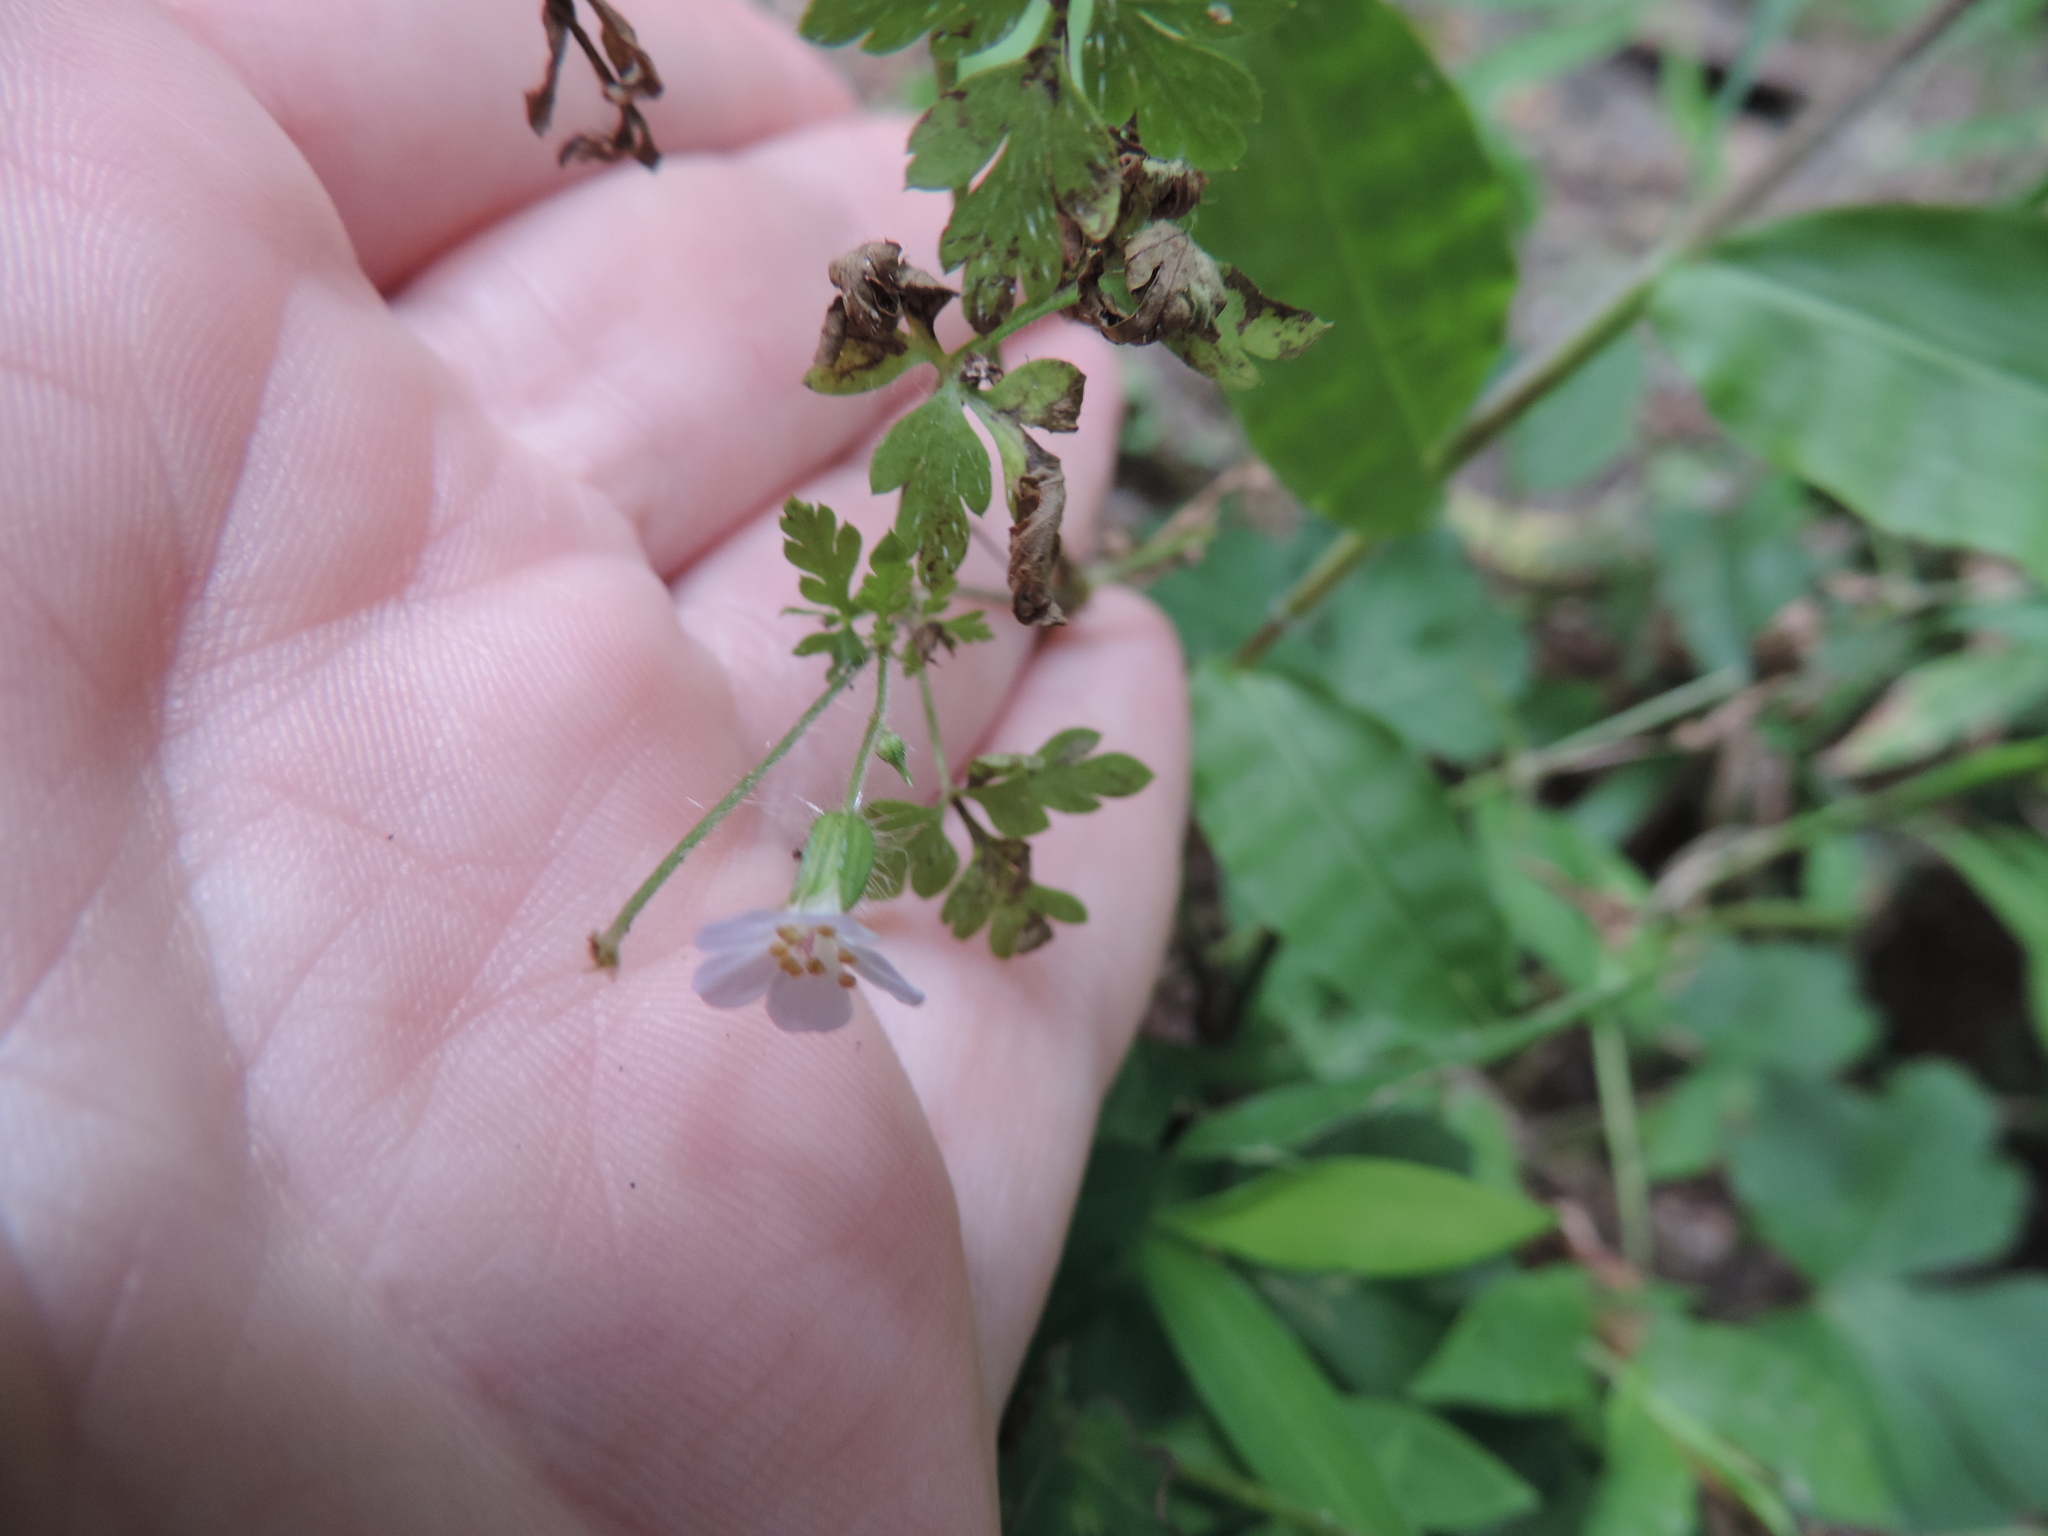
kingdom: Plantae
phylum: Tracheophyta
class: Magnoliopsida
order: Geraniales
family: Geraniaceae
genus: Geranium
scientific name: Geranium robertianum
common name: Herb-robert
